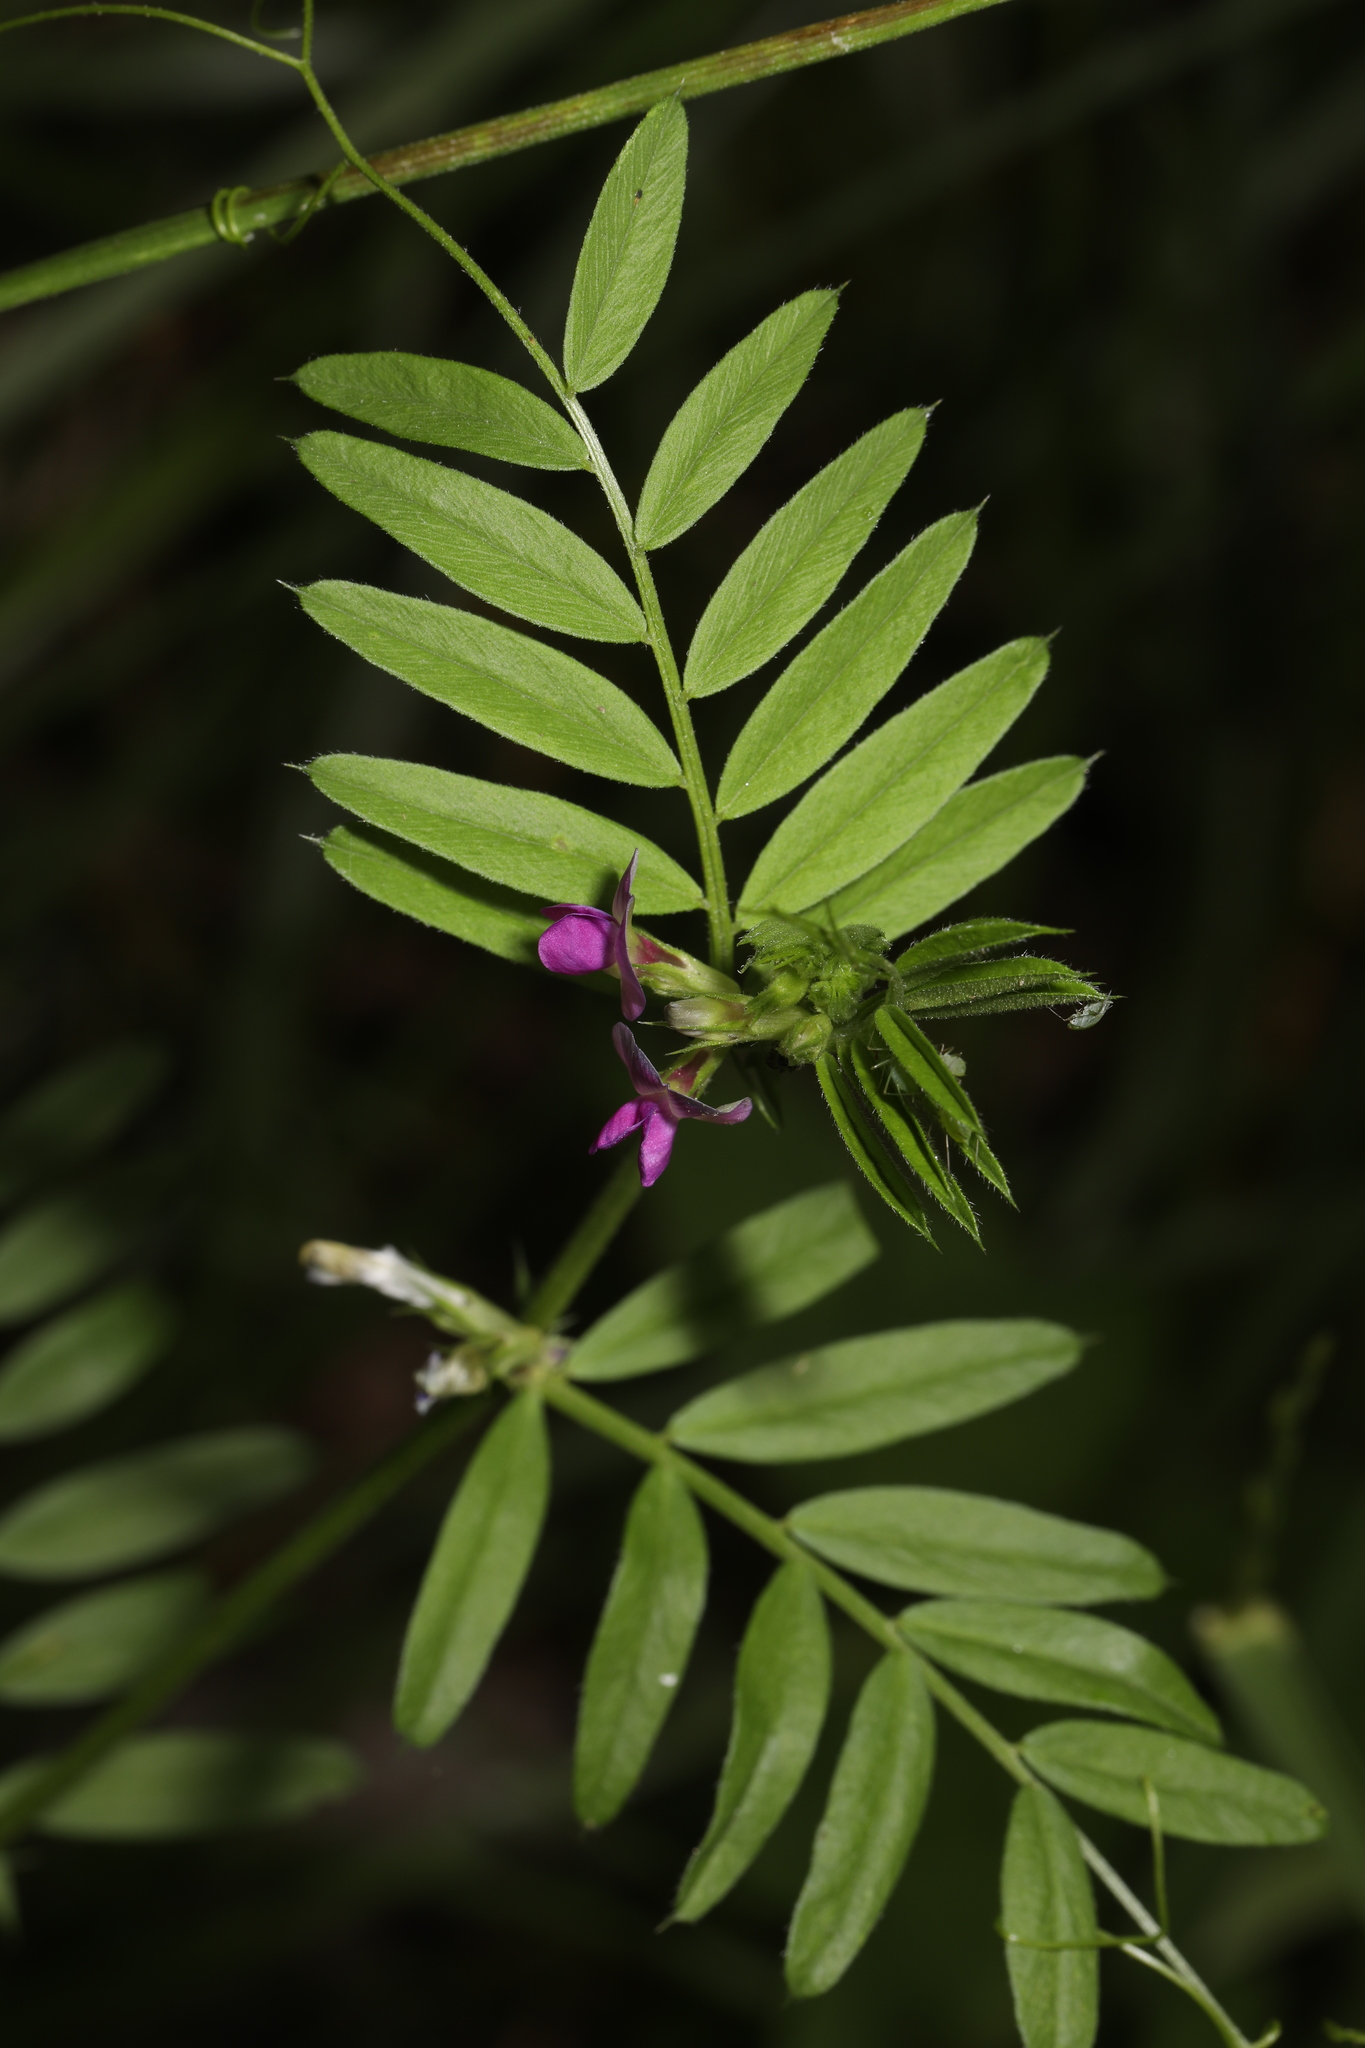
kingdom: Plantae
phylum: Tracheophyta
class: Magnoliopsida
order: Fabales
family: Fabaceae
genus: Vicia
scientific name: Vicia sativa
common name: Garden vetch
